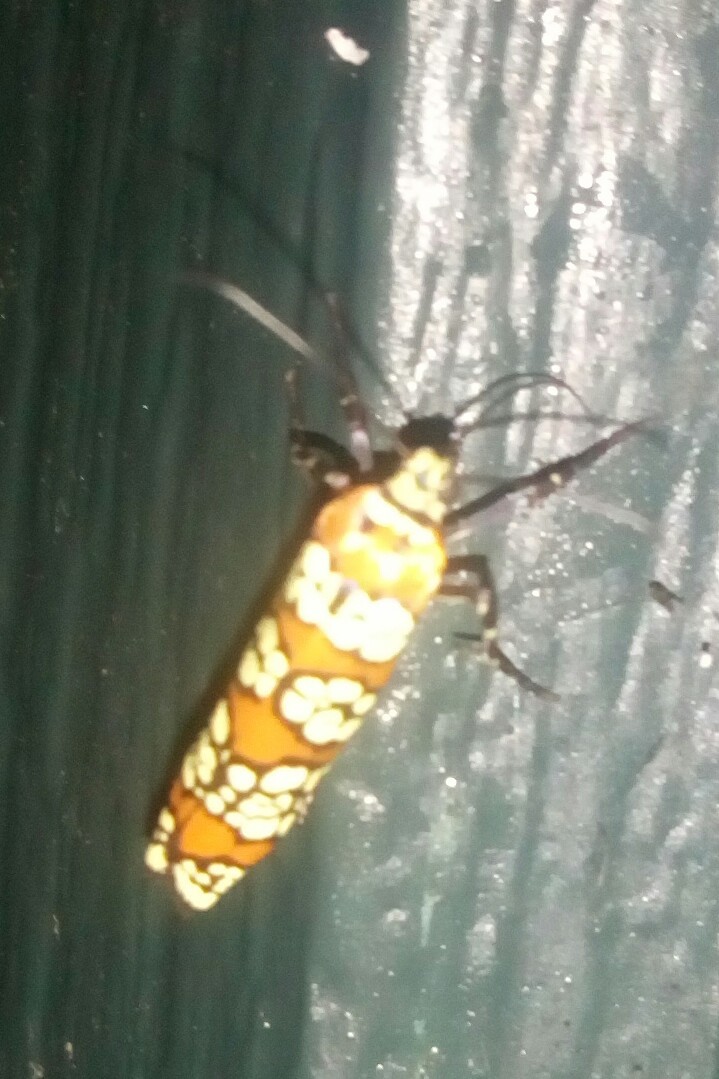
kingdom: Animalia
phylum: Arthropoda
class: Insecta
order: Lepidoptera
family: Attevidae
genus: Atteva
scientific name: Atteva punctella
